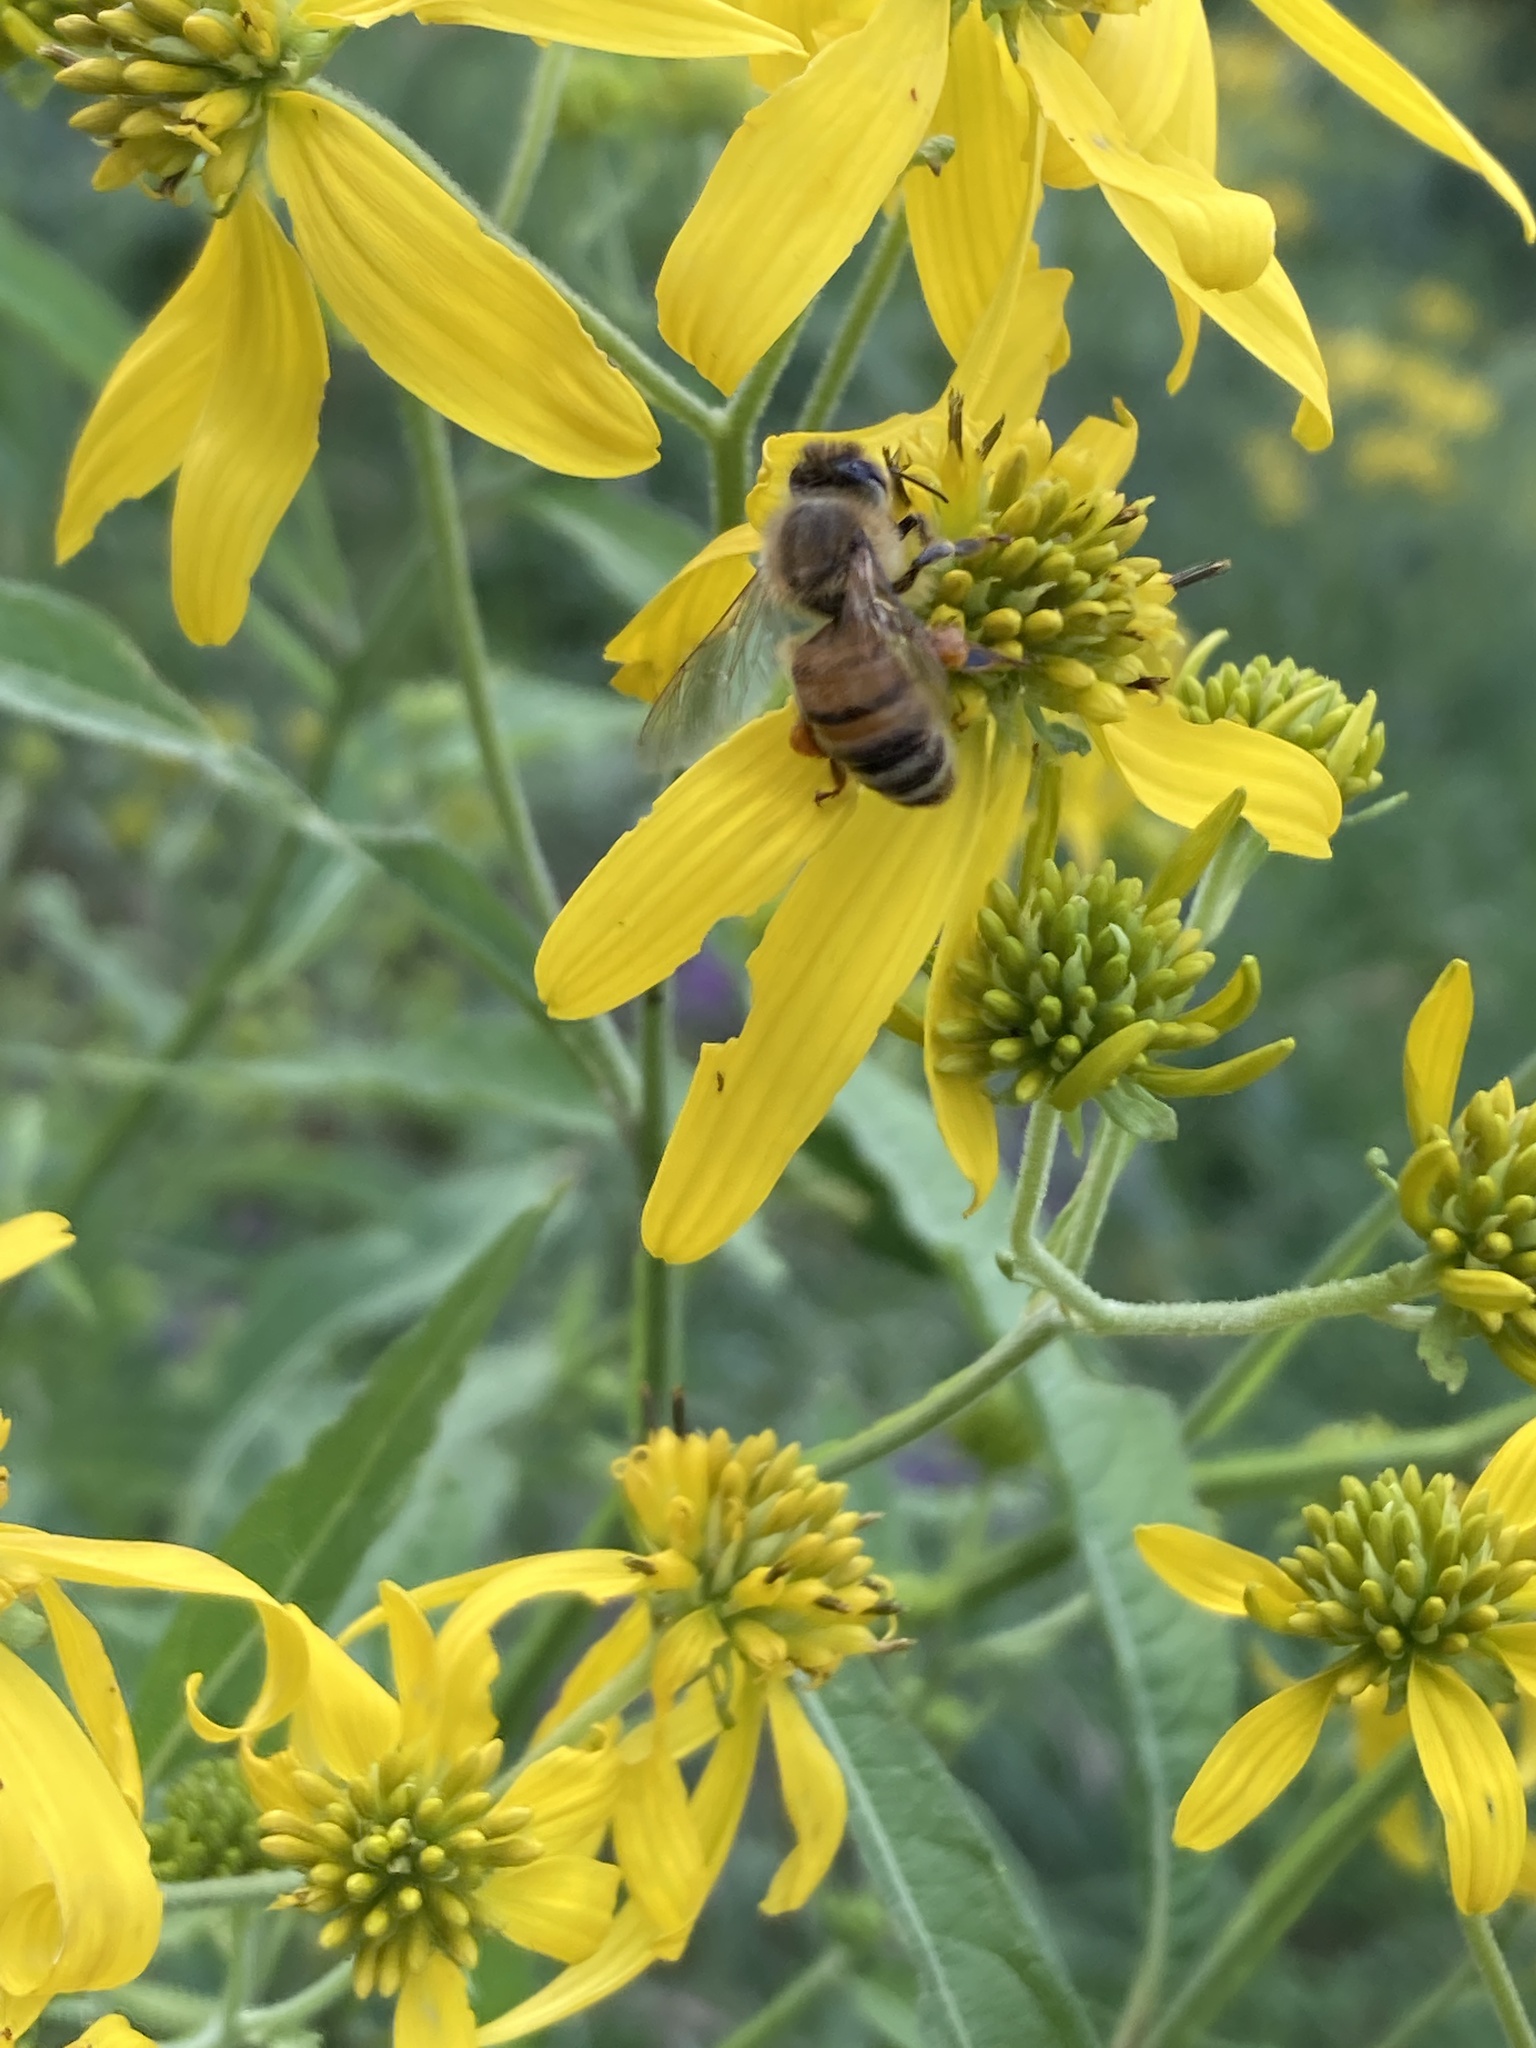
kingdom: Animalia
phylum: Arthropoda
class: Insecta
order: Hymenoptera
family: Apidae
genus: Apis
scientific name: Apis mellifera
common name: Honey bee
